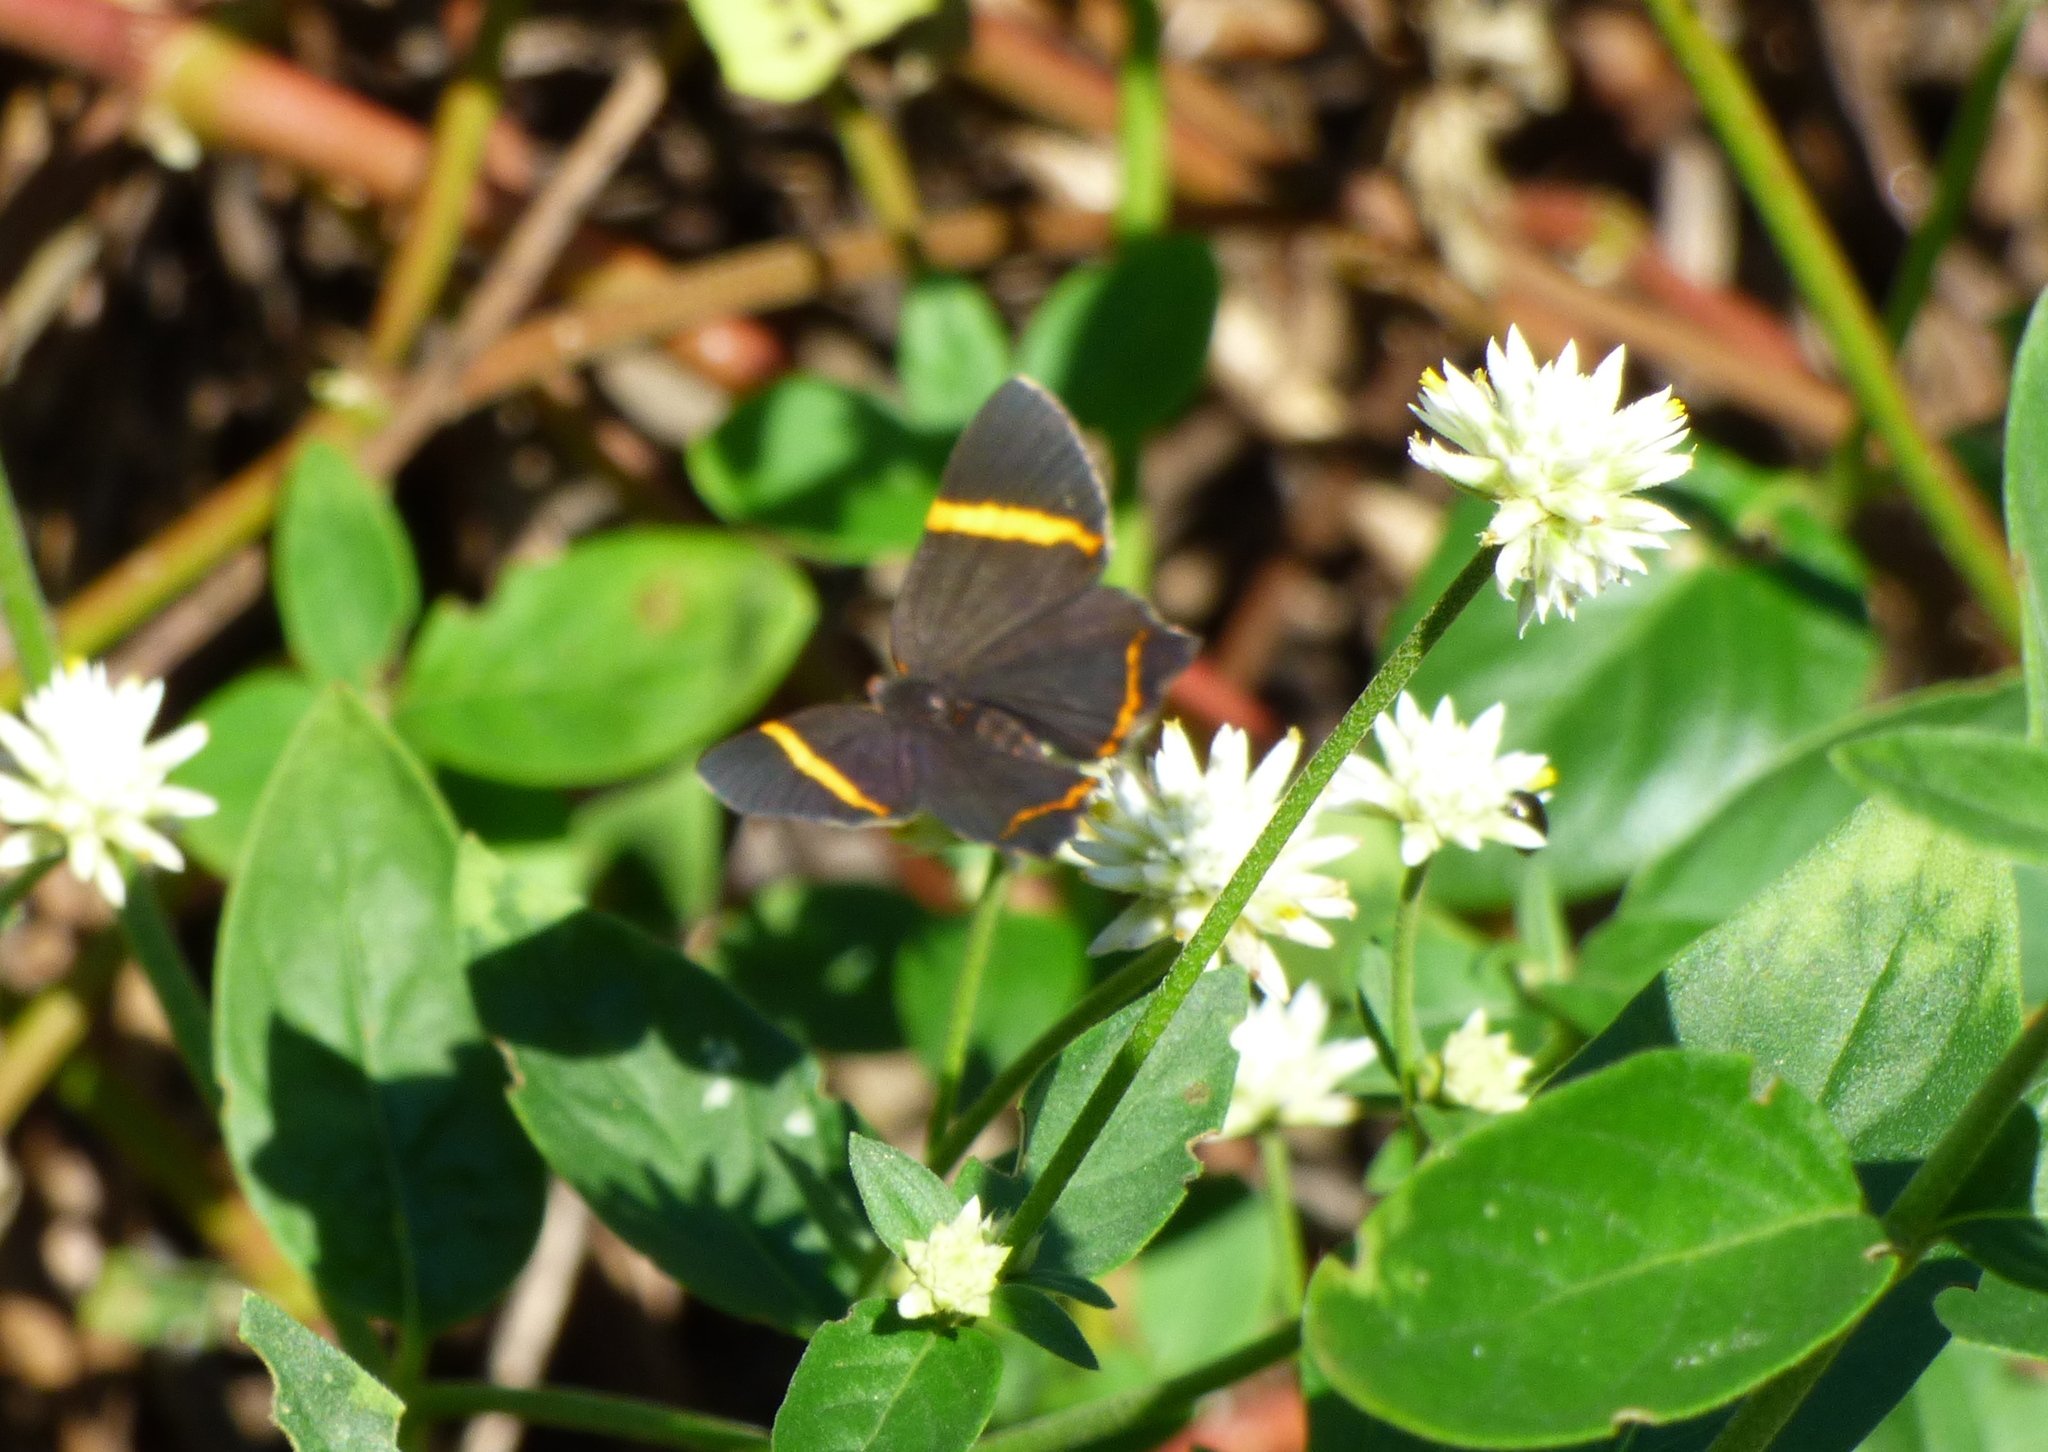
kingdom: Animalia
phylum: Arthropoda
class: Insecta
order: Lepidoptera
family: Riodinidae
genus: Riodina
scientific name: Riodina lysippoides
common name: Little dancer metalmark
